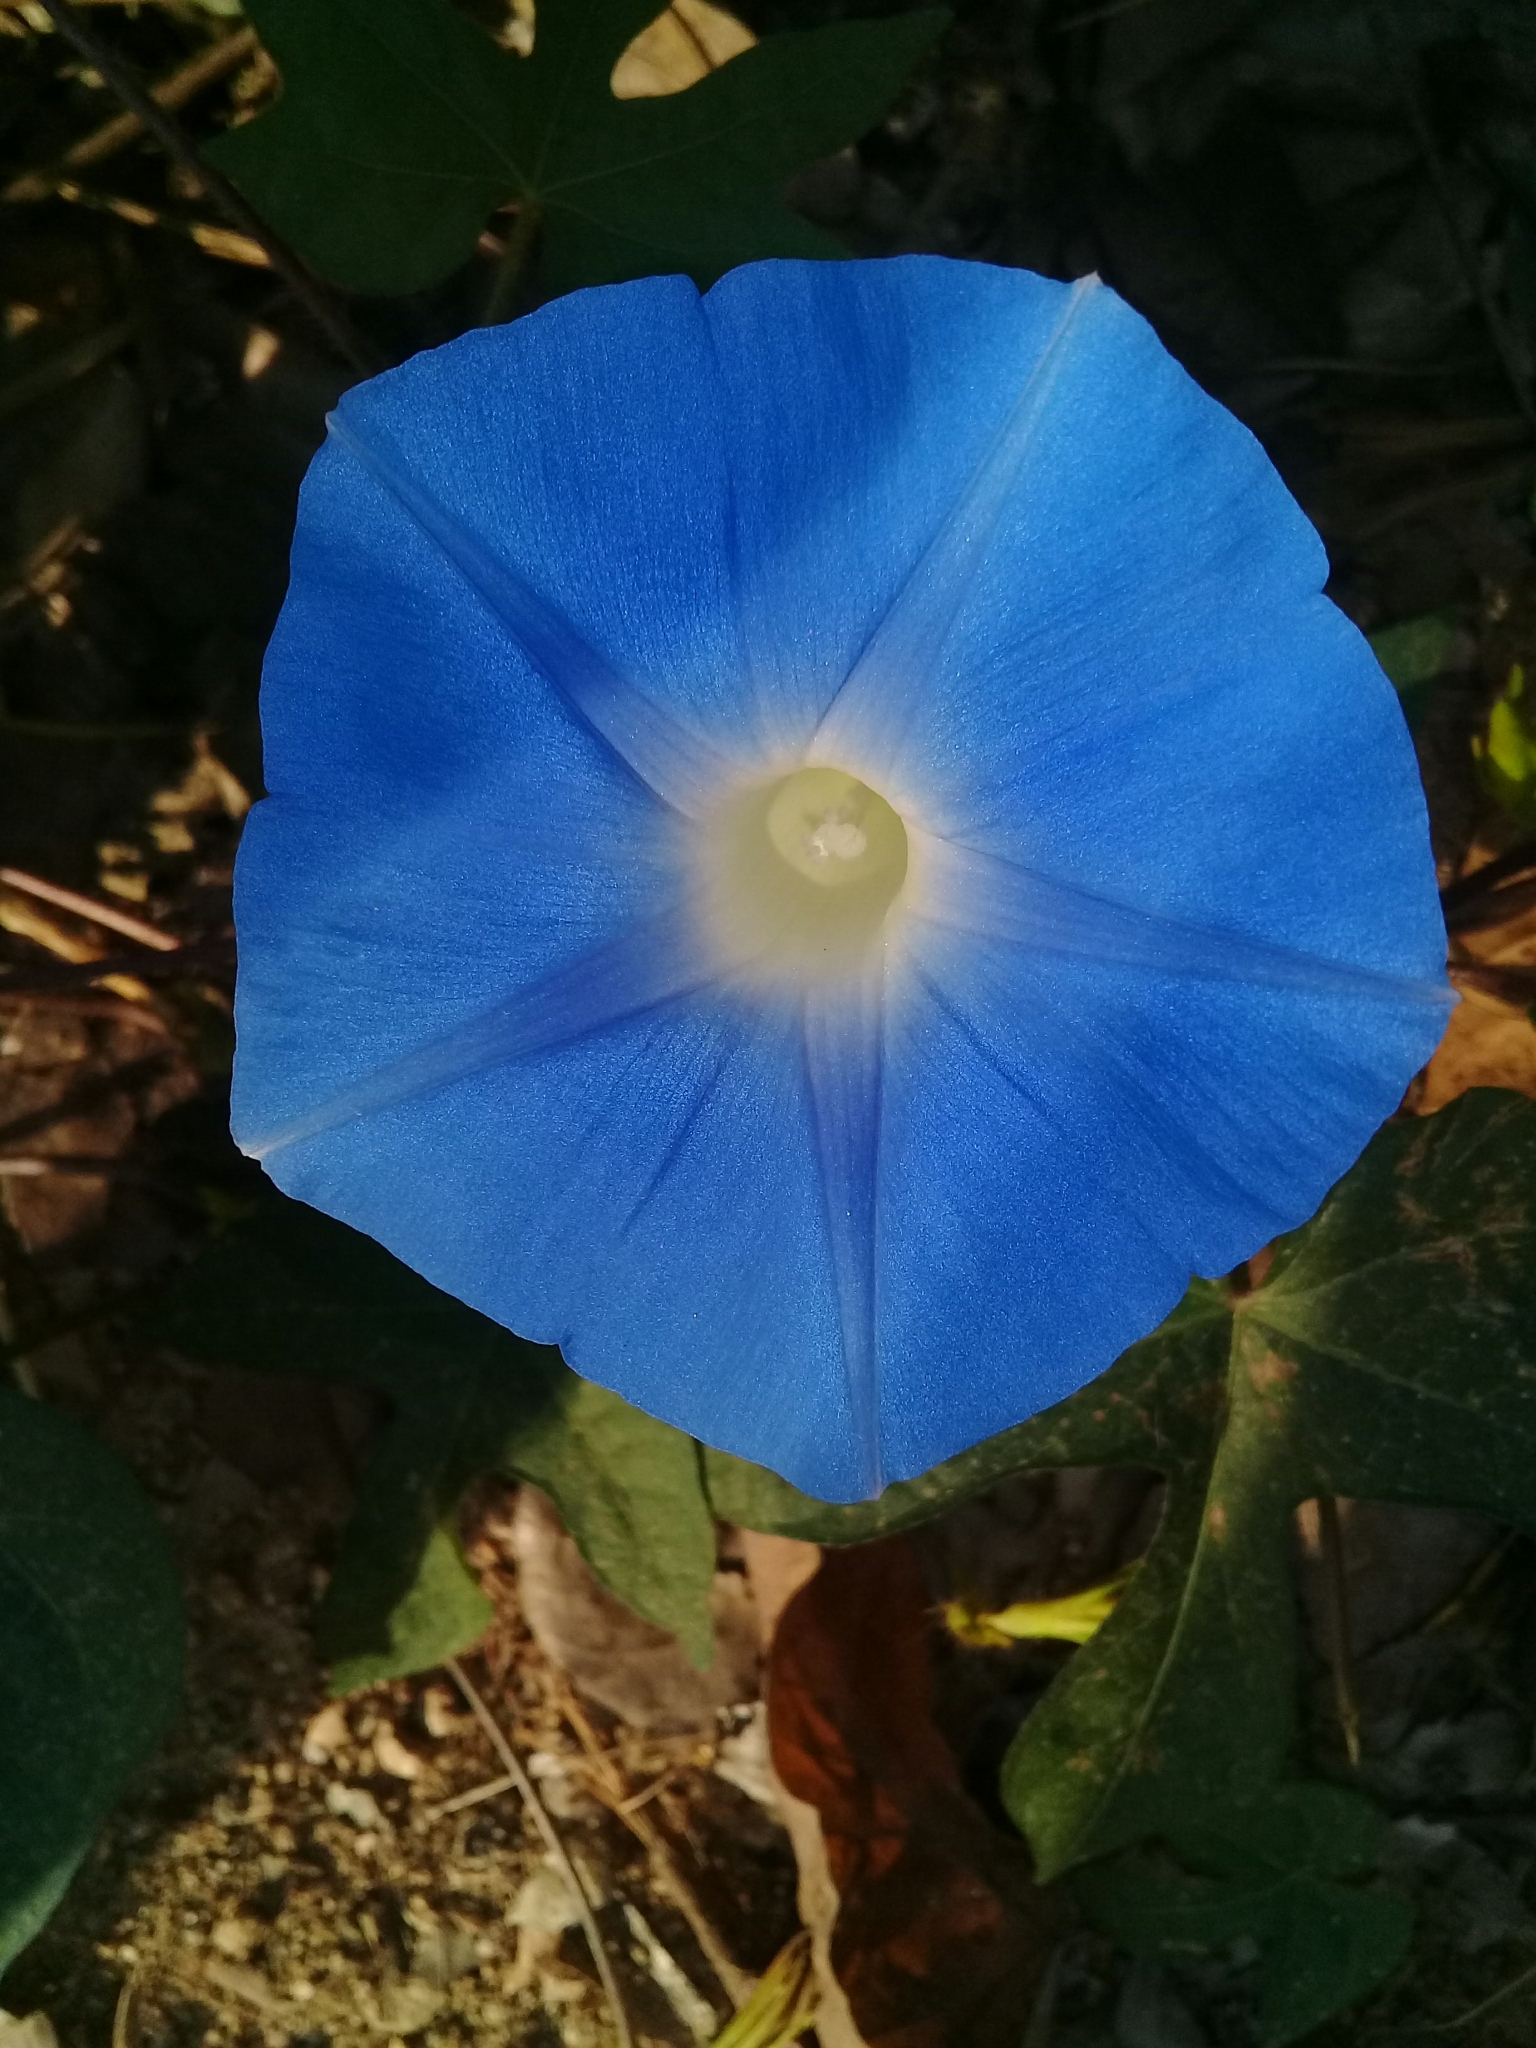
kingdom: Plantae
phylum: Tracheophyta
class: Magnoliopsida
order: Solanales
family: Convolvulaceae
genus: Ipomoea
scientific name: Ipomoea nil
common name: Japanese morning-glory
